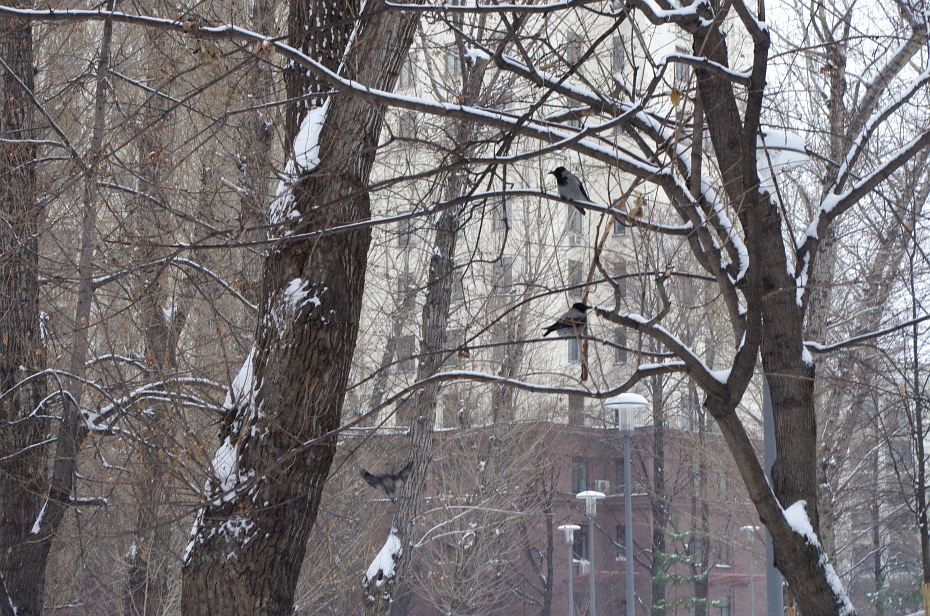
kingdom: Animalia
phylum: Chordata
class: Aves
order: Passeriformes
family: Corvidae
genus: Corvus
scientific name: Corvus cornix
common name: Hooded crow
